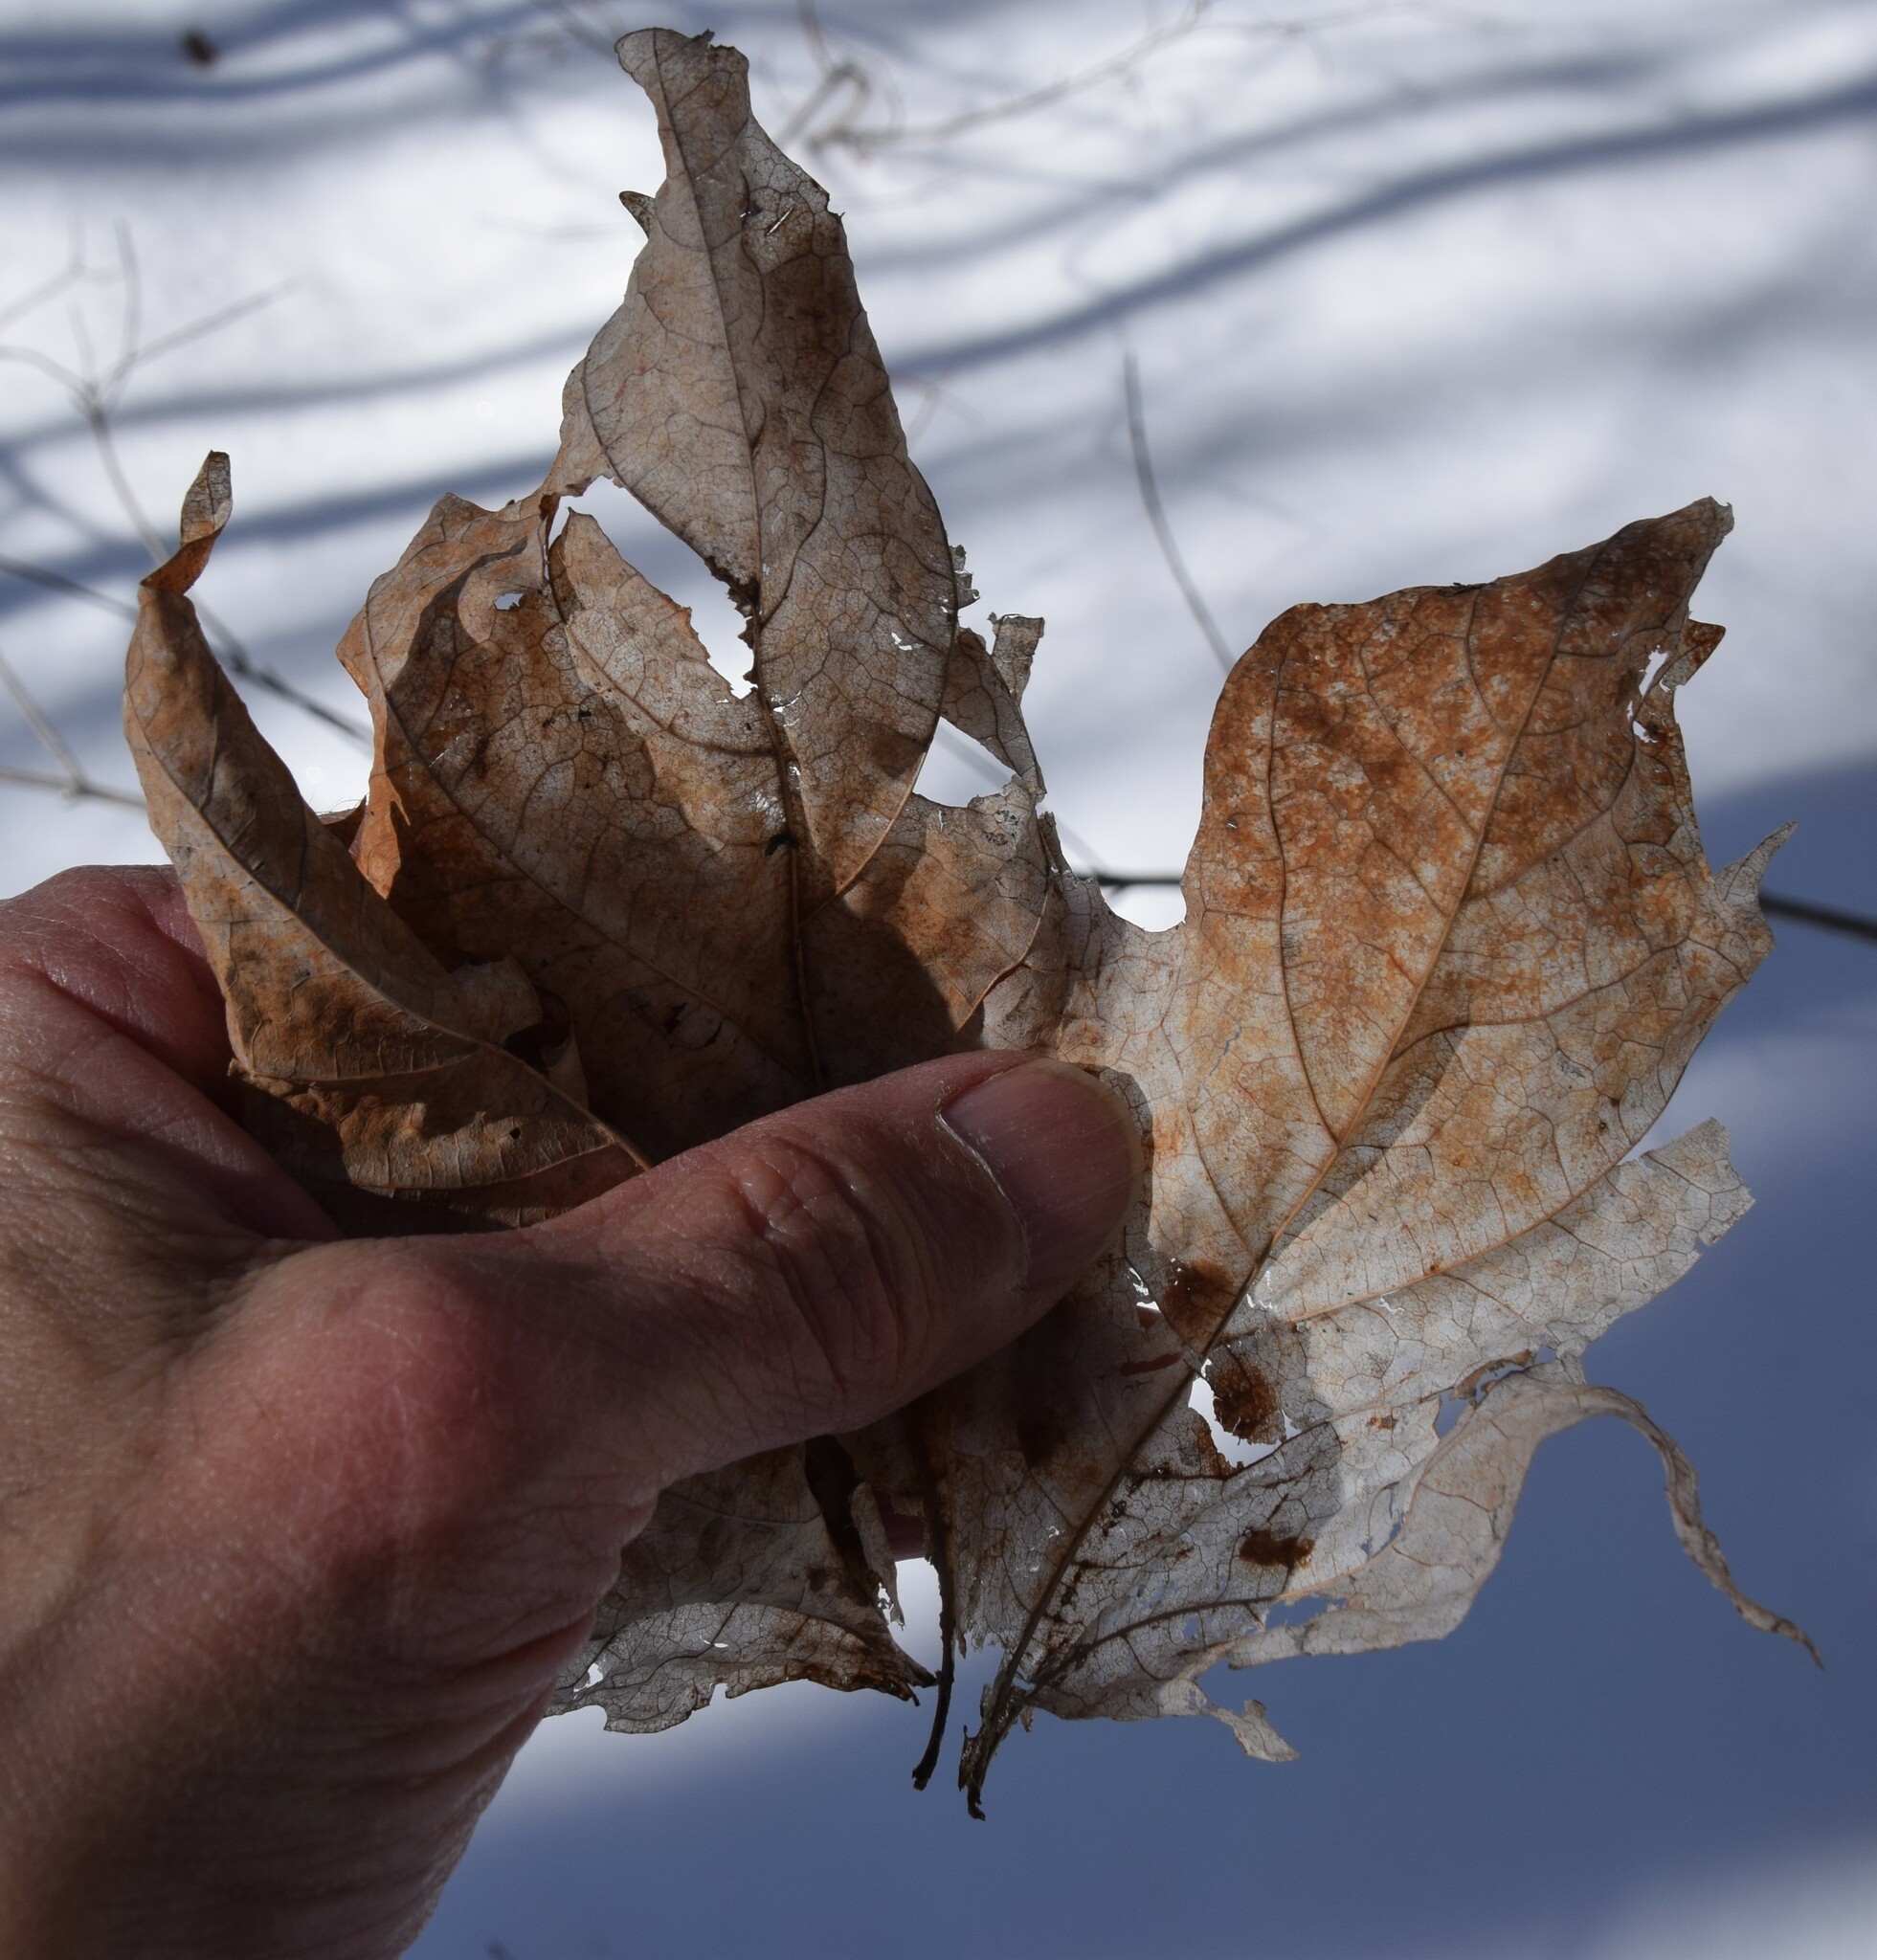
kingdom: Plantae
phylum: Tracheophyta
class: Magnoliopsida
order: Sapindales
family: Sapindaceae
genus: Acer
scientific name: Acer saccharum
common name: Sugar maple
